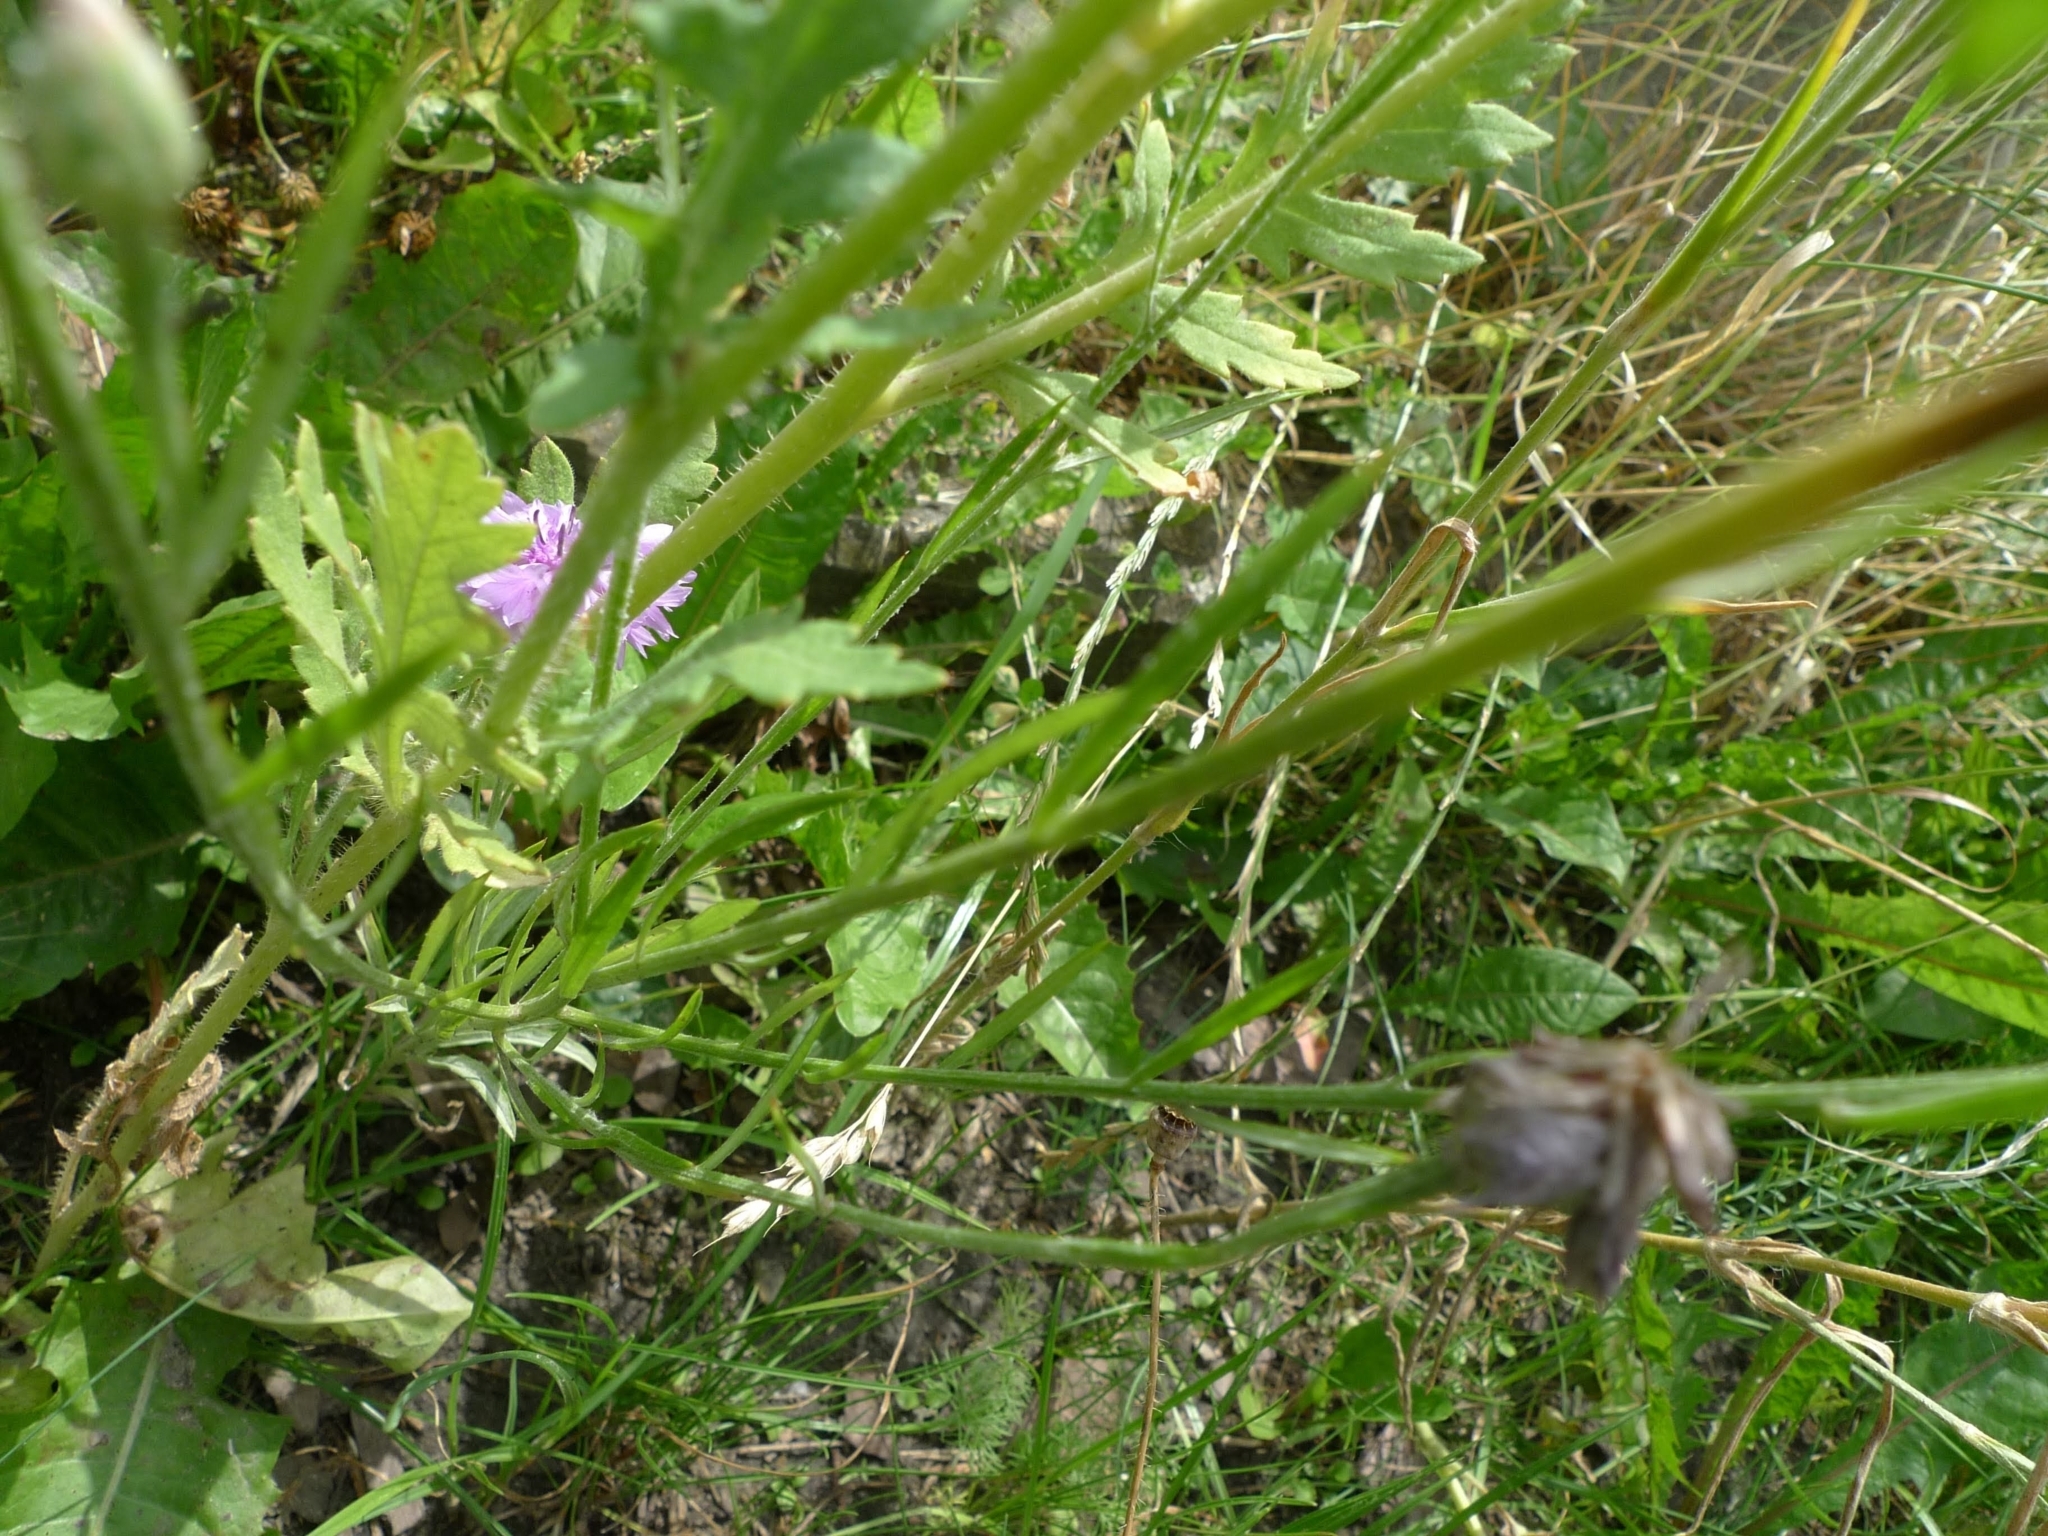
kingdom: Plantae
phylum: Tracheophyta
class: Magnoliopsida
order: Asterales
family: Asteraceae
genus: Centaurea
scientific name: Centaurea cyanus
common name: Cornflower
